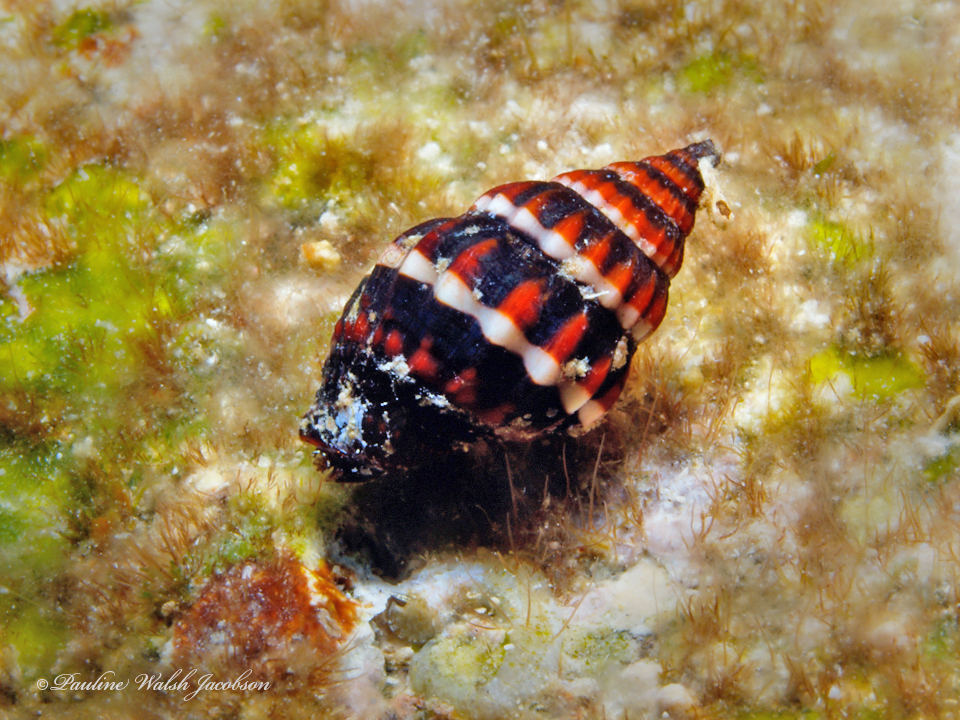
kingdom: Animalia
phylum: Mollusca
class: Gastropoda
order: Neogastropoda
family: Costellariidae
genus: Vexillum
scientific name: Vexillum histrio
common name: Harlequin miter
